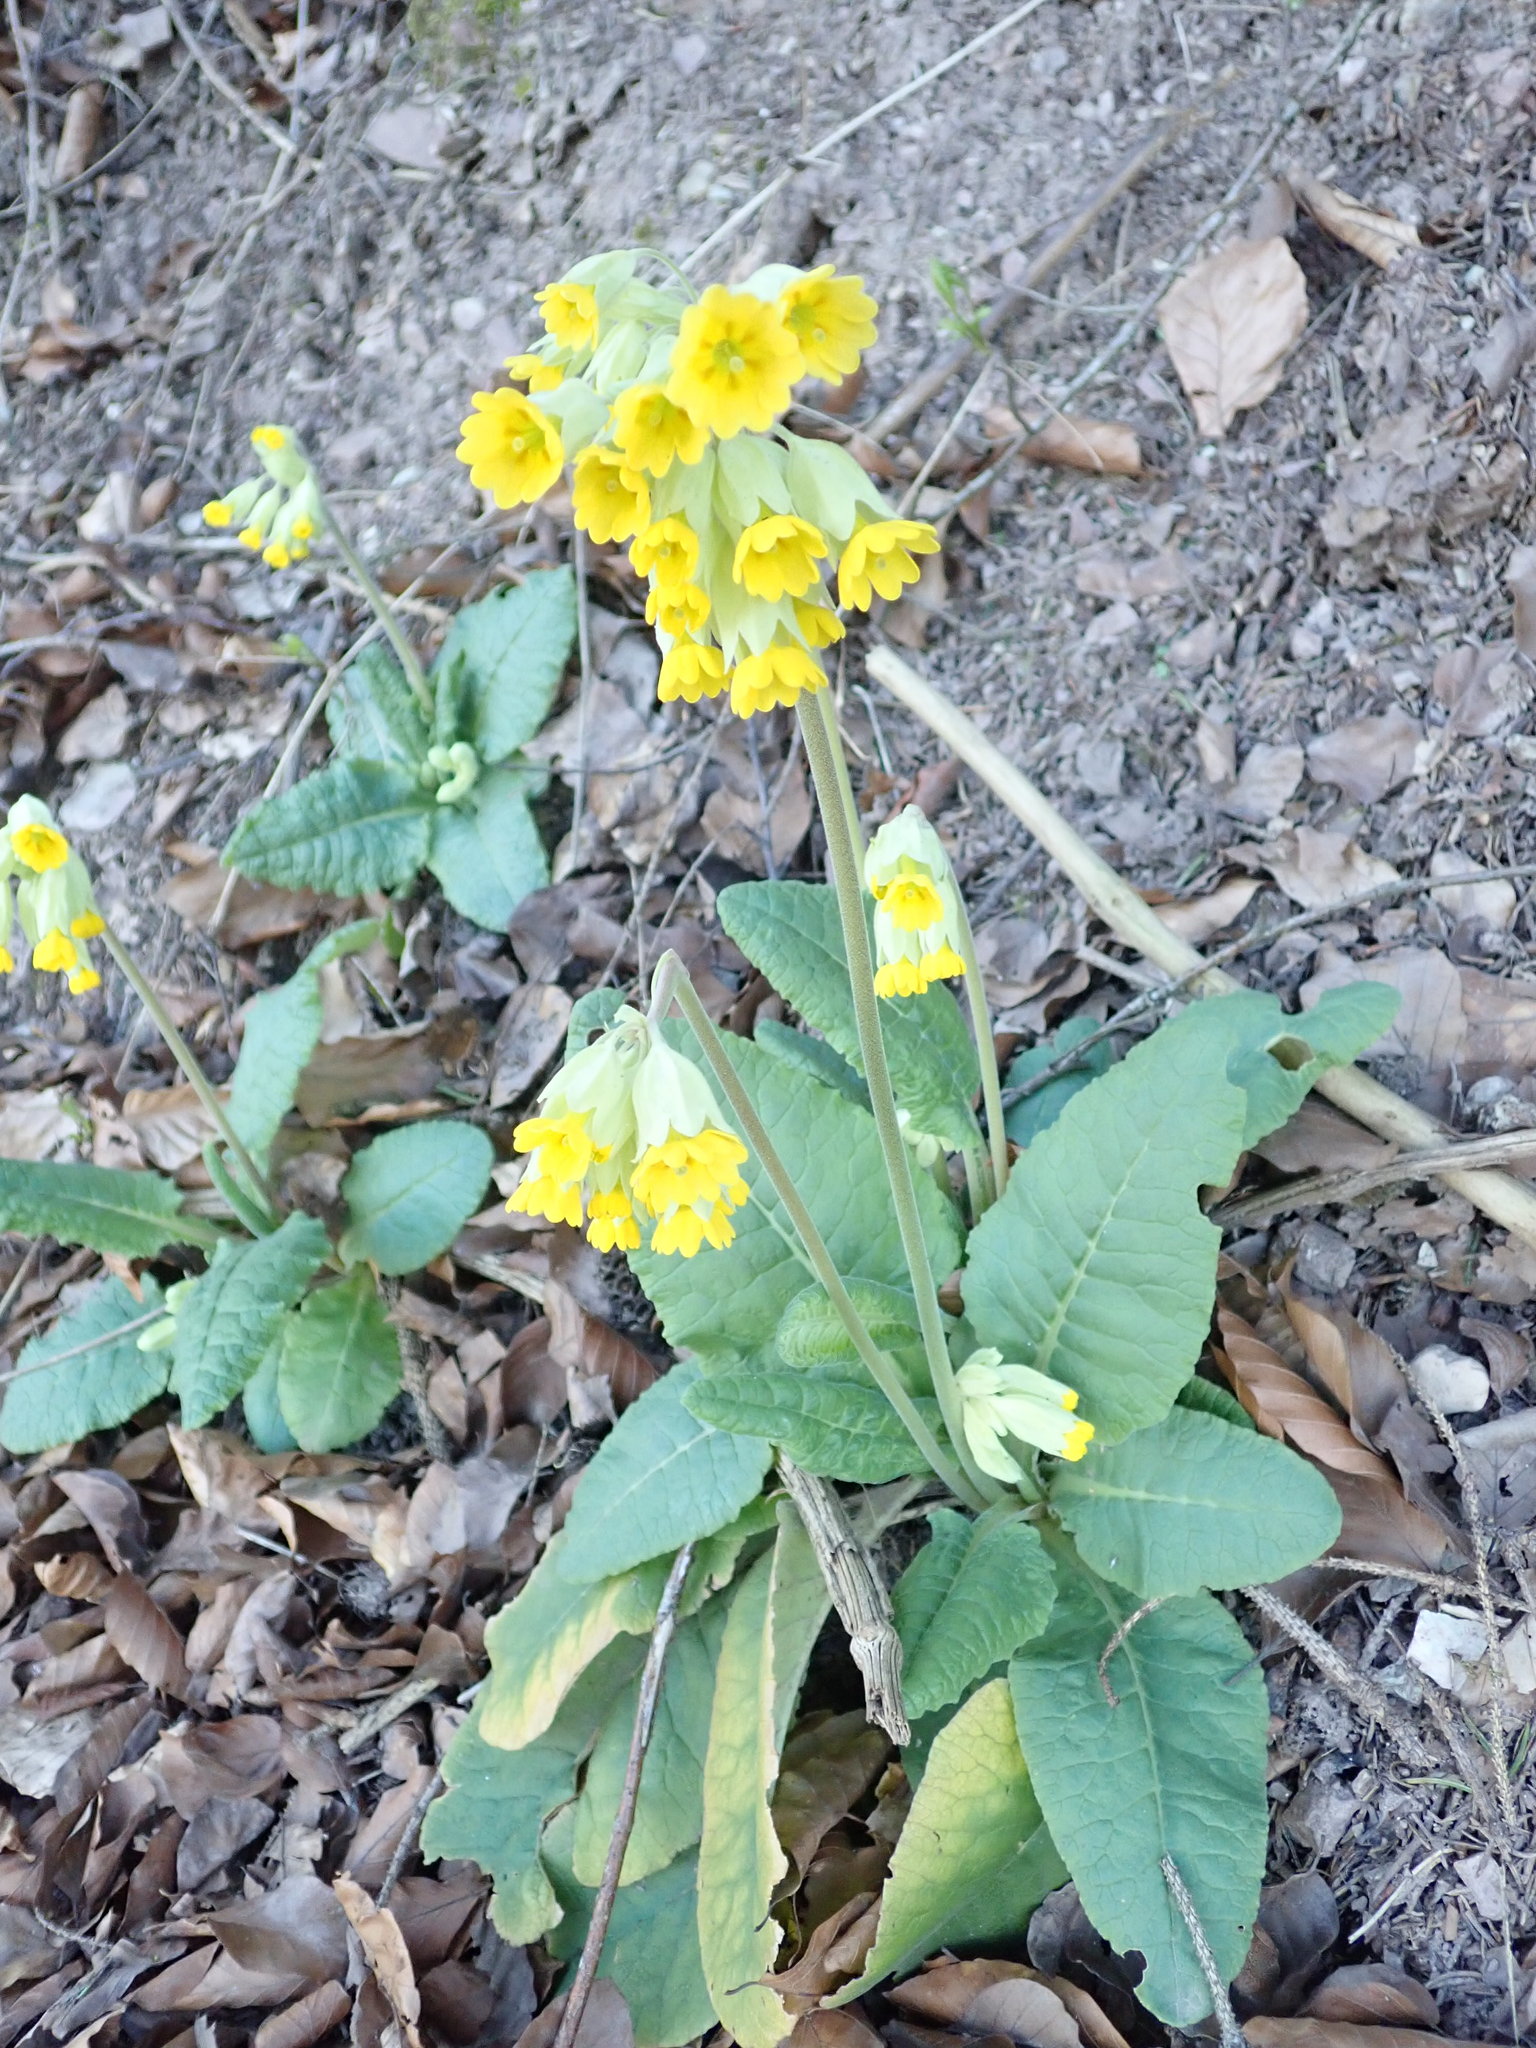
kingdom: Plantae
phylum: Tracheophyta
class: Magnoliopsida
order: Ericales
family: Primulaceae
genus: Primula
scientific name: Primula veris
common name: Cowslip
